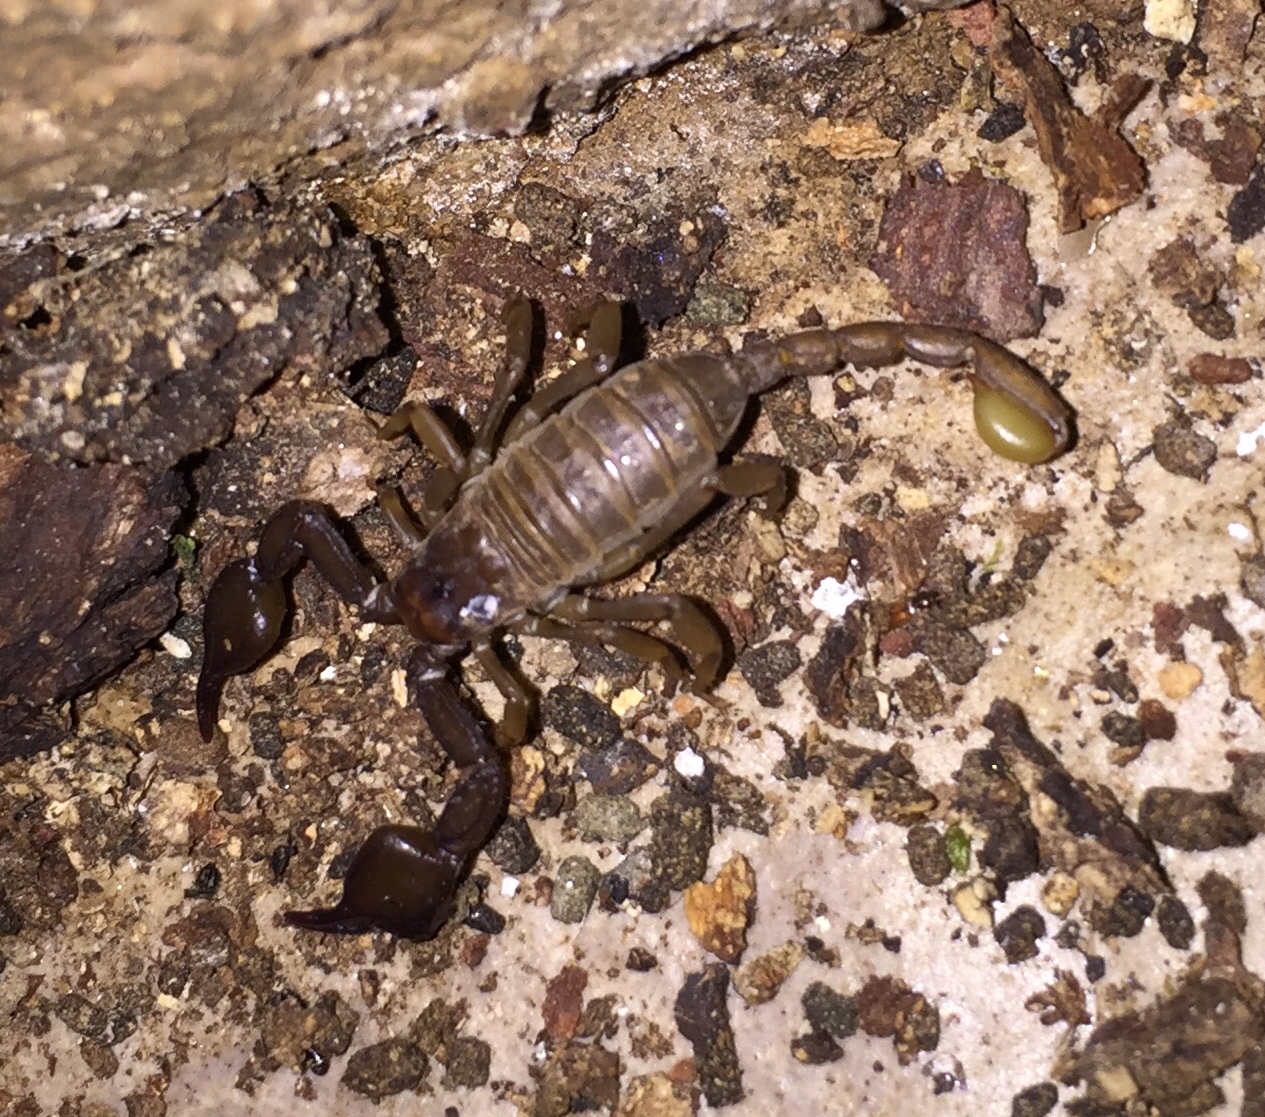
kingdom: Animalia
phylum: Arthropoda
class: Arachnida
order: Scorpiones
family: Euscorpiidae
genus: Euscorpius
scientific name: Euscorpius solegladi
